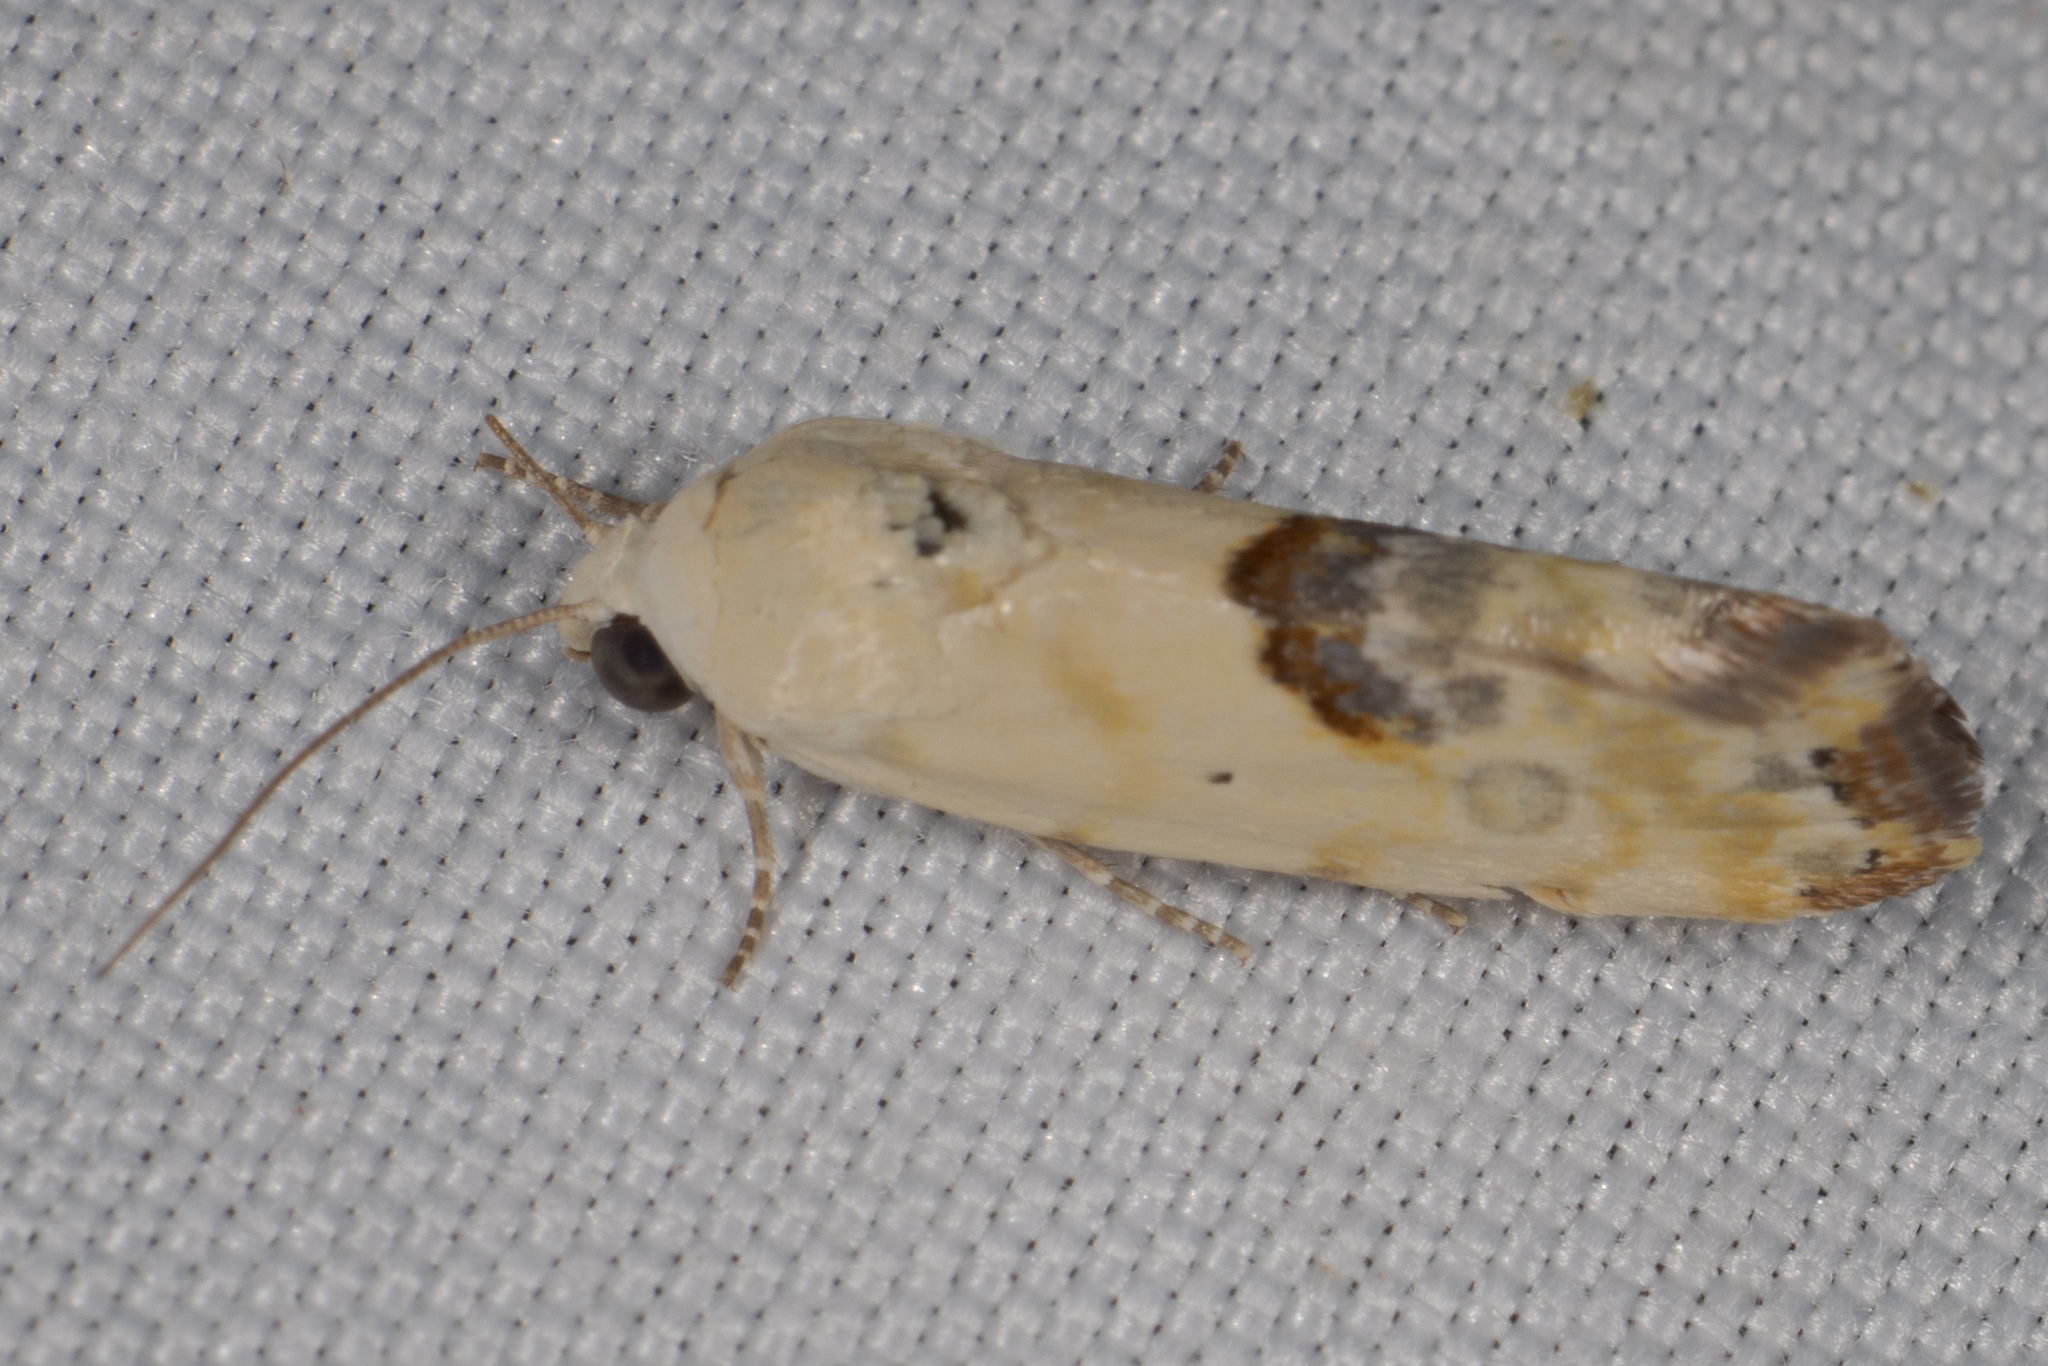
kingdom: Animalia
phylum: Arthropoda
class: Insecta
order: Lepidoptera
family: Noctuidae
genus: Acontia
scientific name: Acontia candefacta
